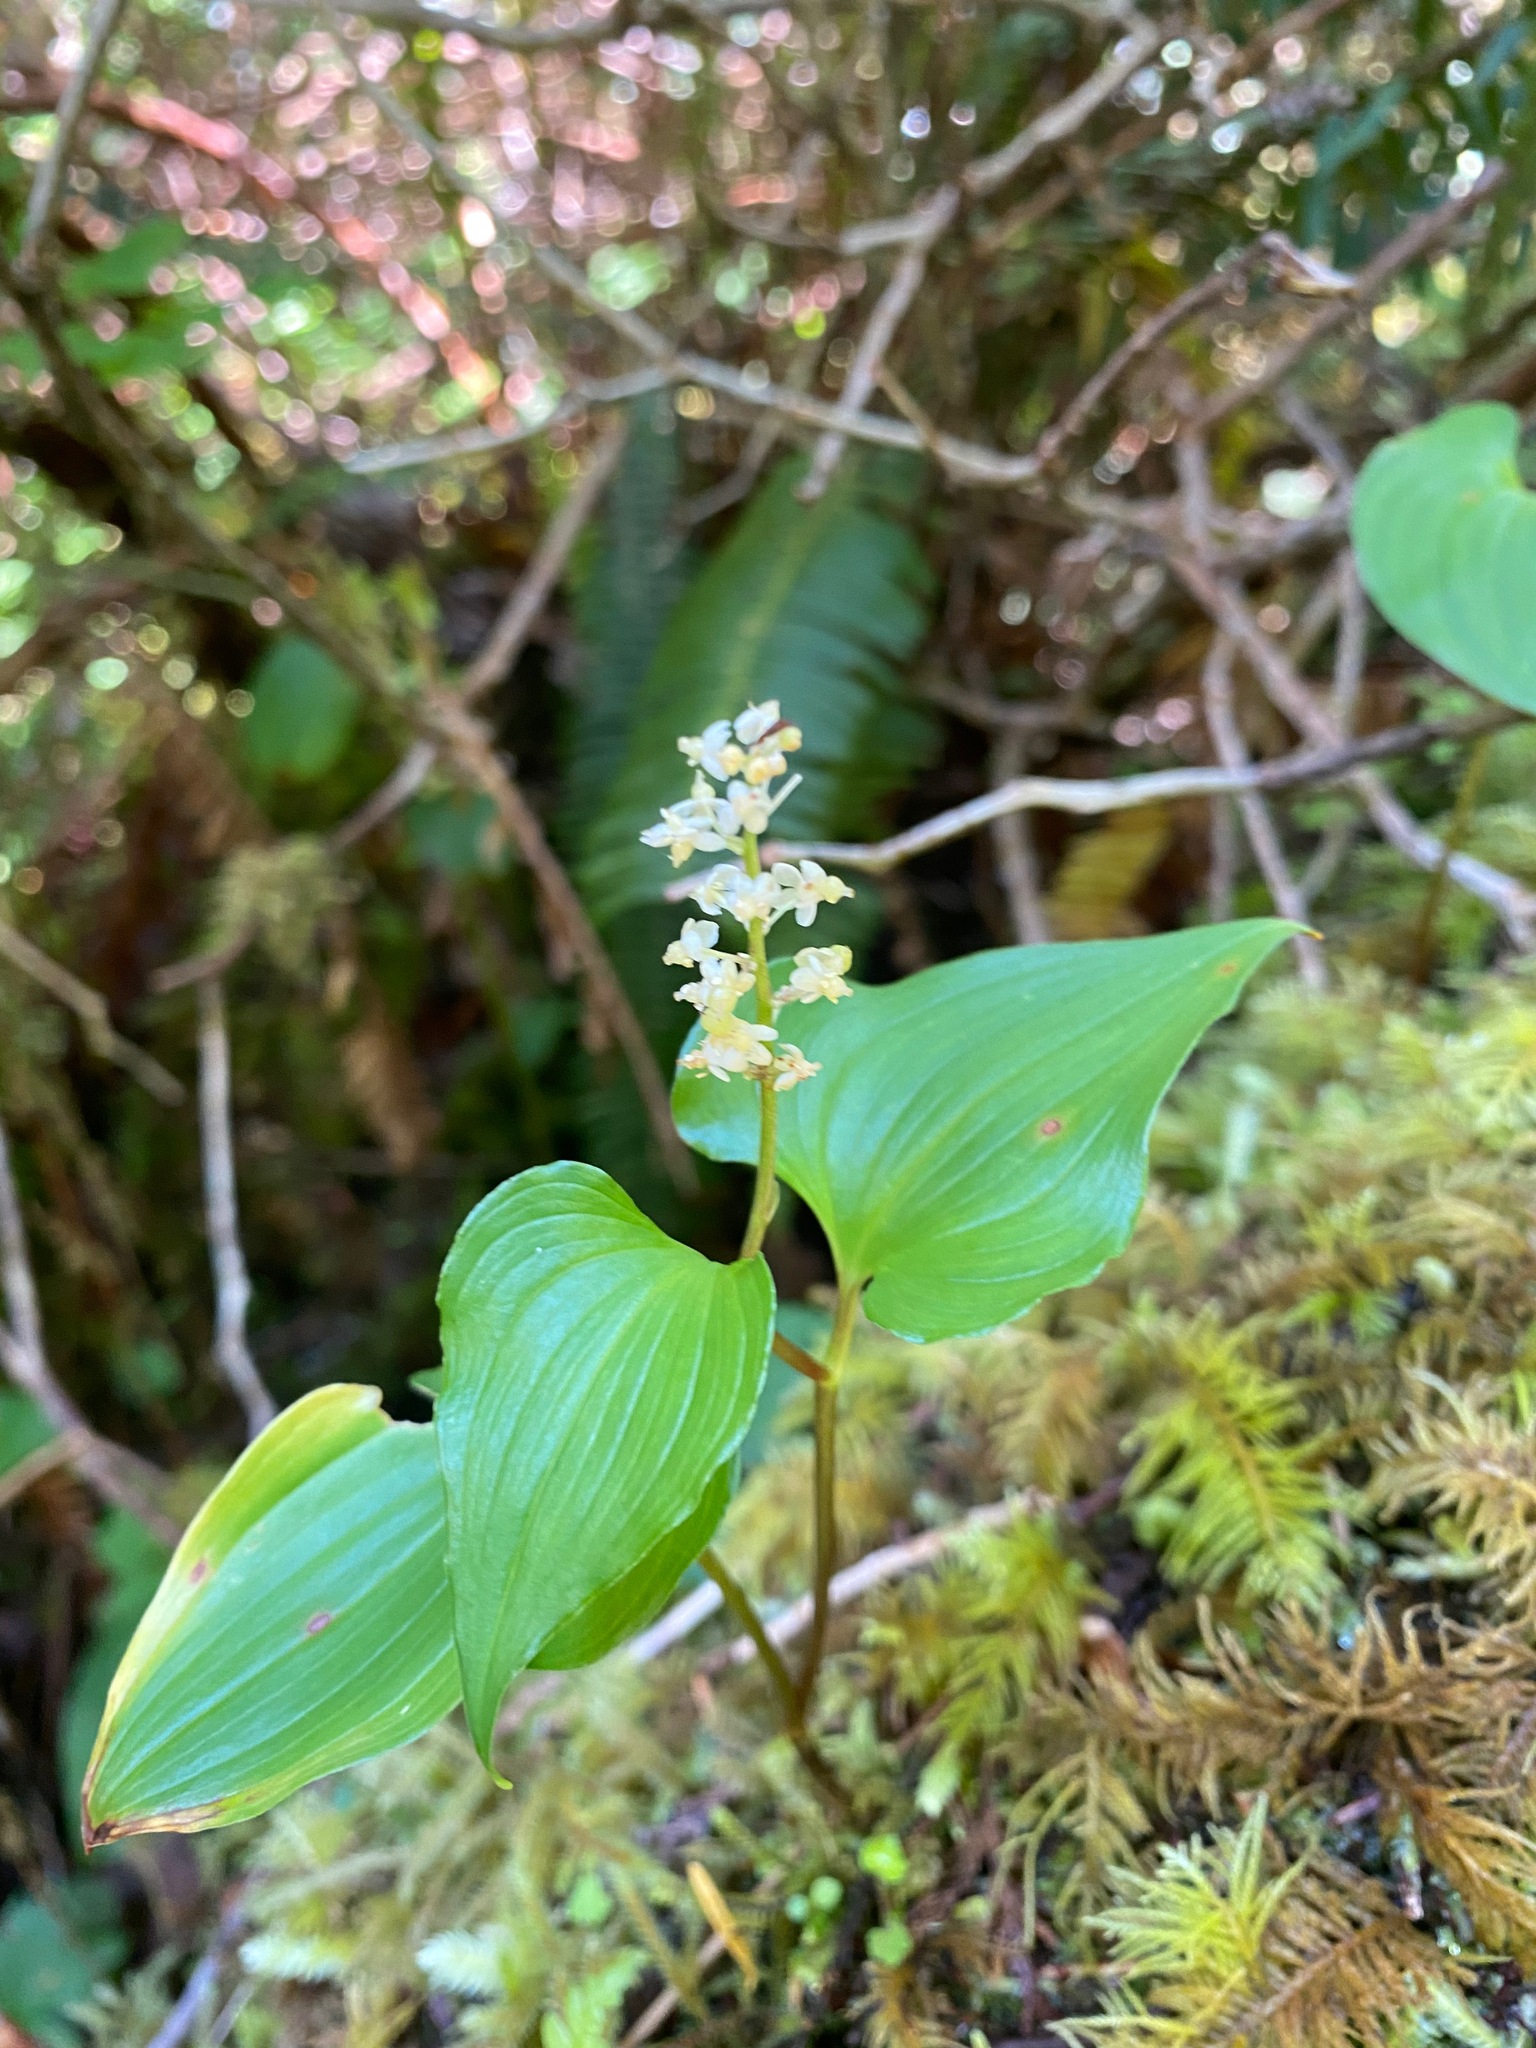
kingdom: Plantae
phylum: Tracheophyta
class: Liliopsida
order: Asparagales
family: Asparagaceae
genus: Maianthemum
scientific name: Maianthemum dilatatum
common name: False lily-of-the-valley
